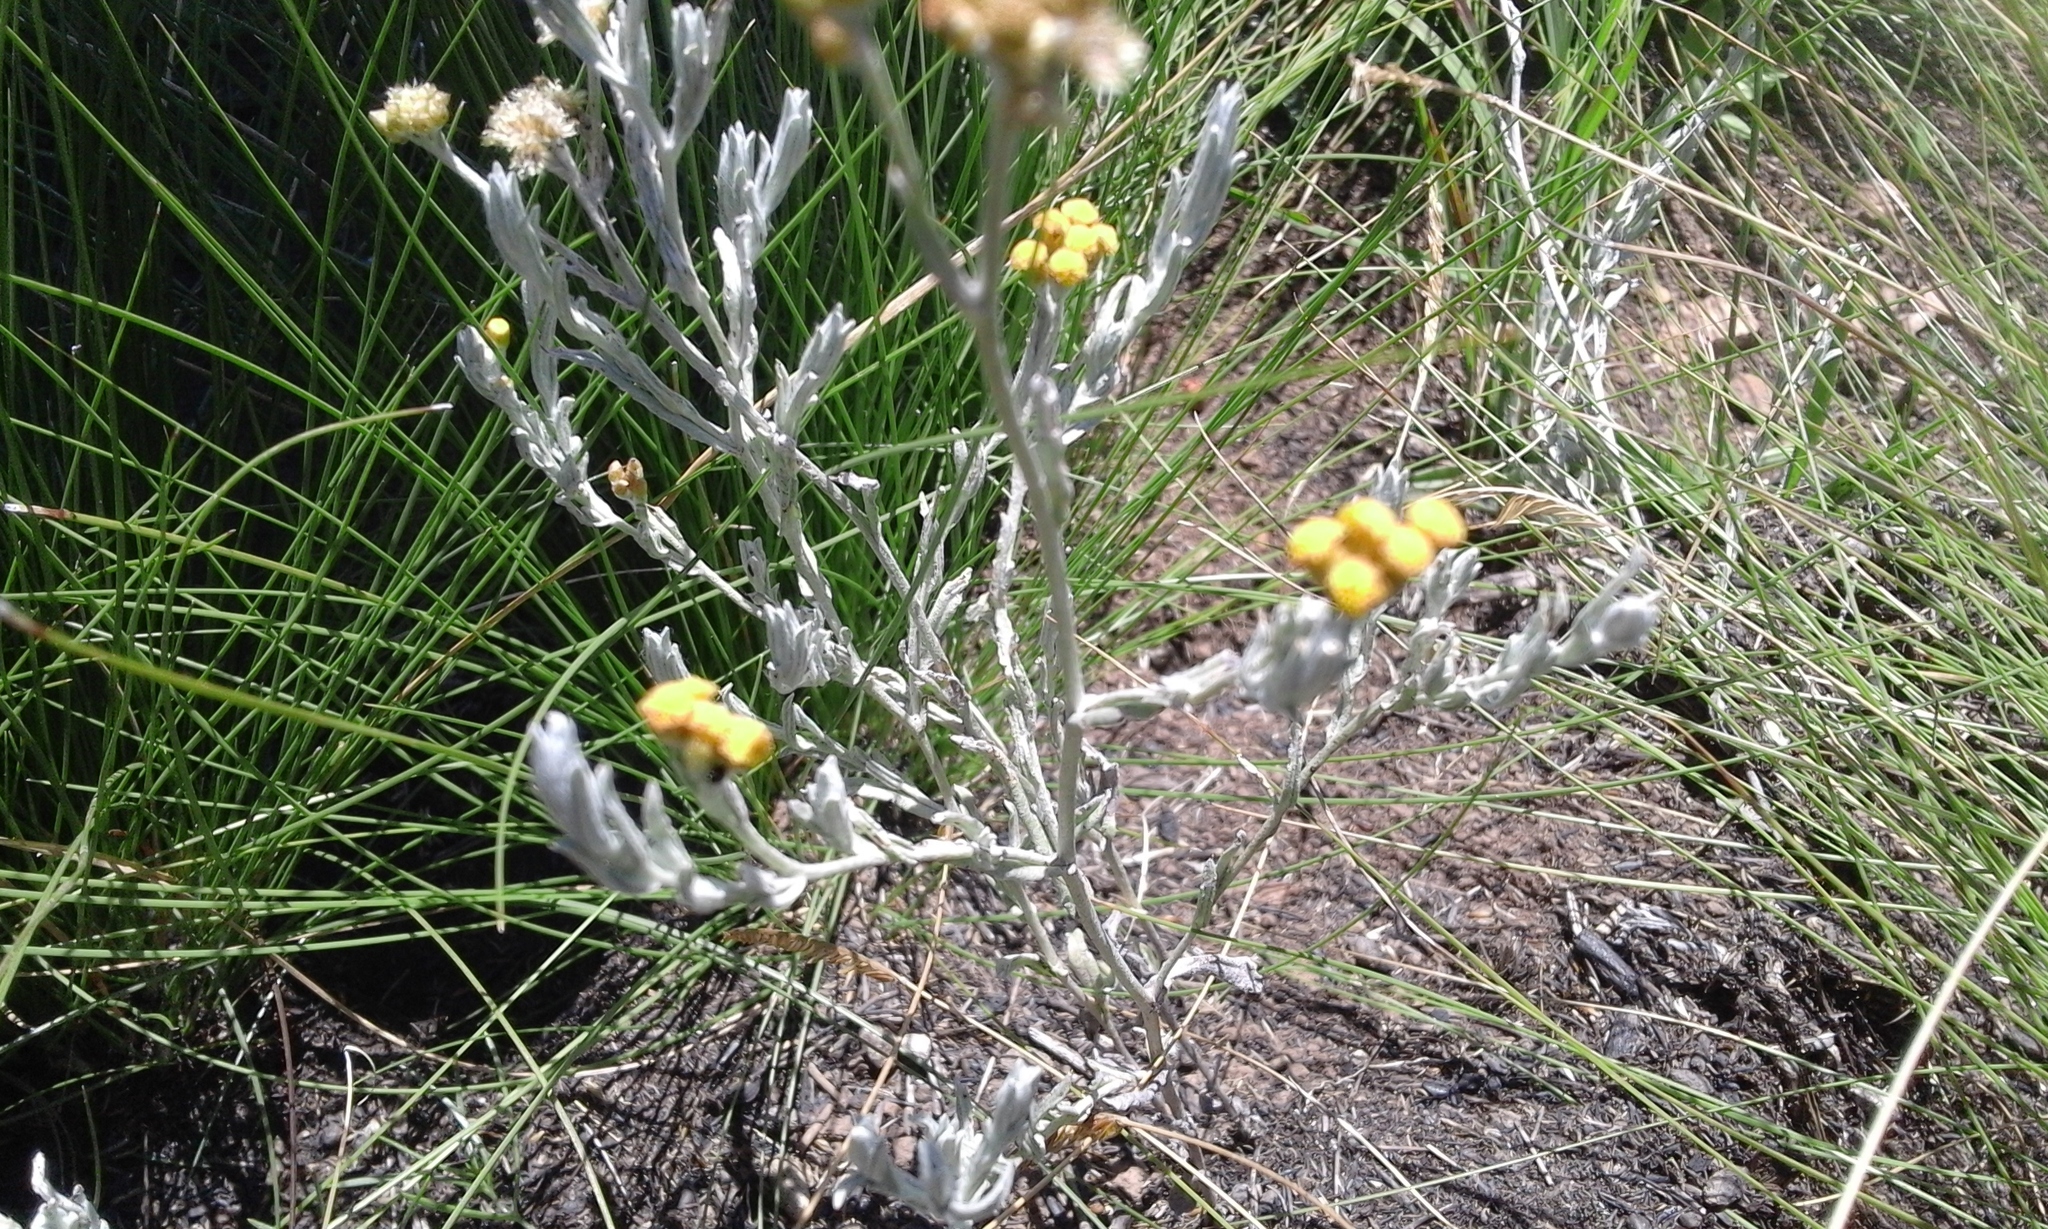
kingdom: Plantae
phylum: Tracheophyta
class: Magnoliopsida
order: Asterales
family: Asteraceae
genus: Helichrysum
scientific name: Helichrysum aureonitens
